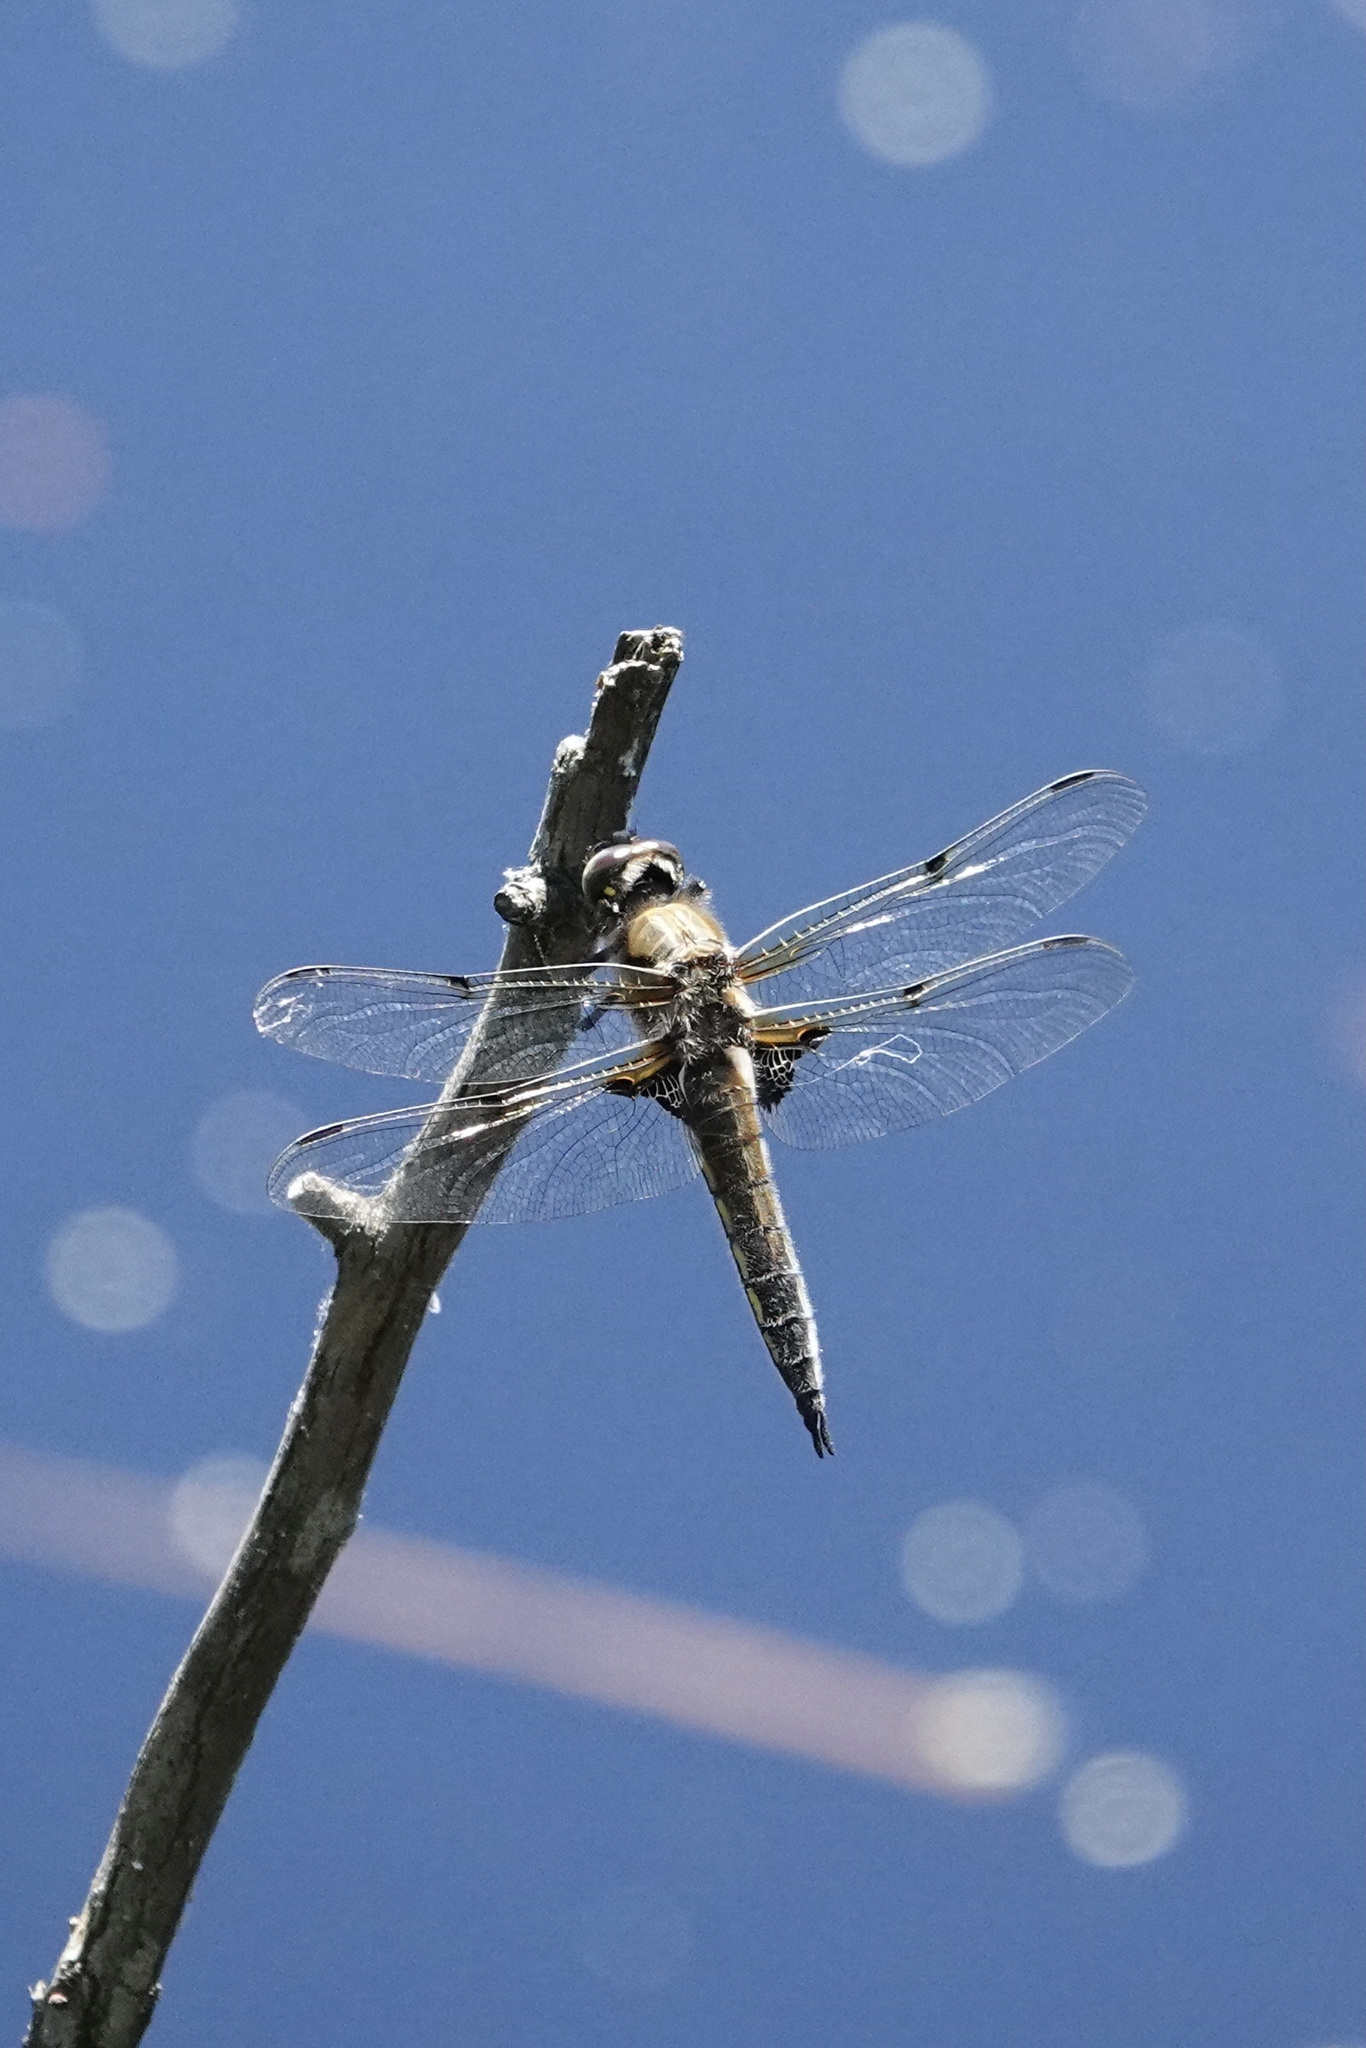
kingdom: Animalia
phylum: Arthropoda
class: Insecta
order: Odonata
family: Libellulidae
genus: Libellula
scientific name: Libellula quadrimaculata
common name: Four-spotted chaser
